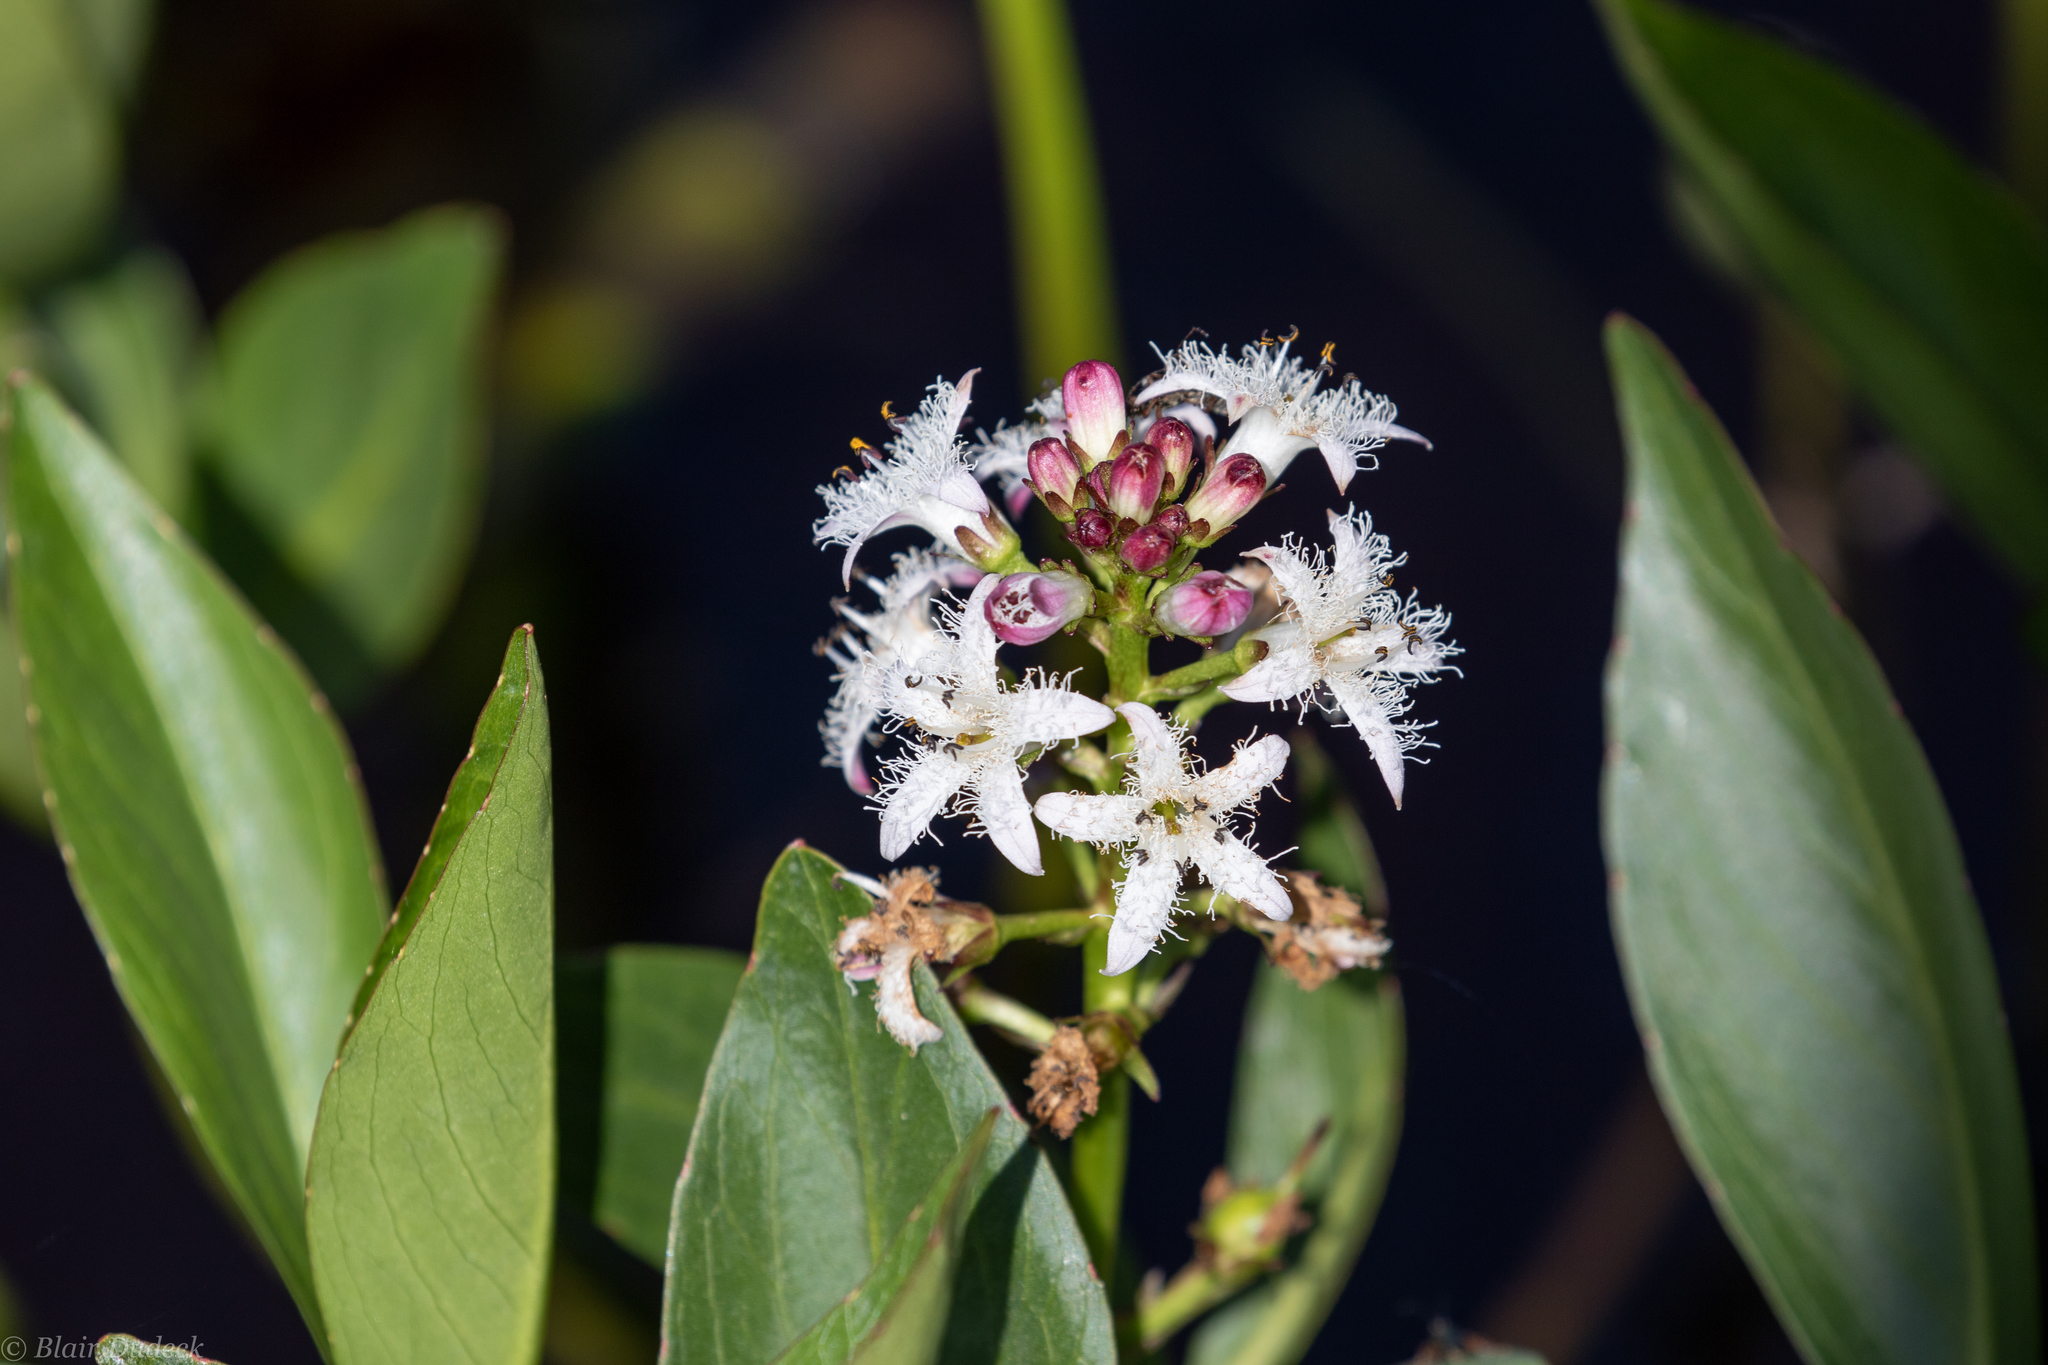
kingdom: Plantae
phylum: Tracheophyta
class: Magnoliopsida
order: Asterales
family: Menyanthaceae
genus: Menyanthes
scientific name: Menyanthes trifoliata
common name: Bogbean
